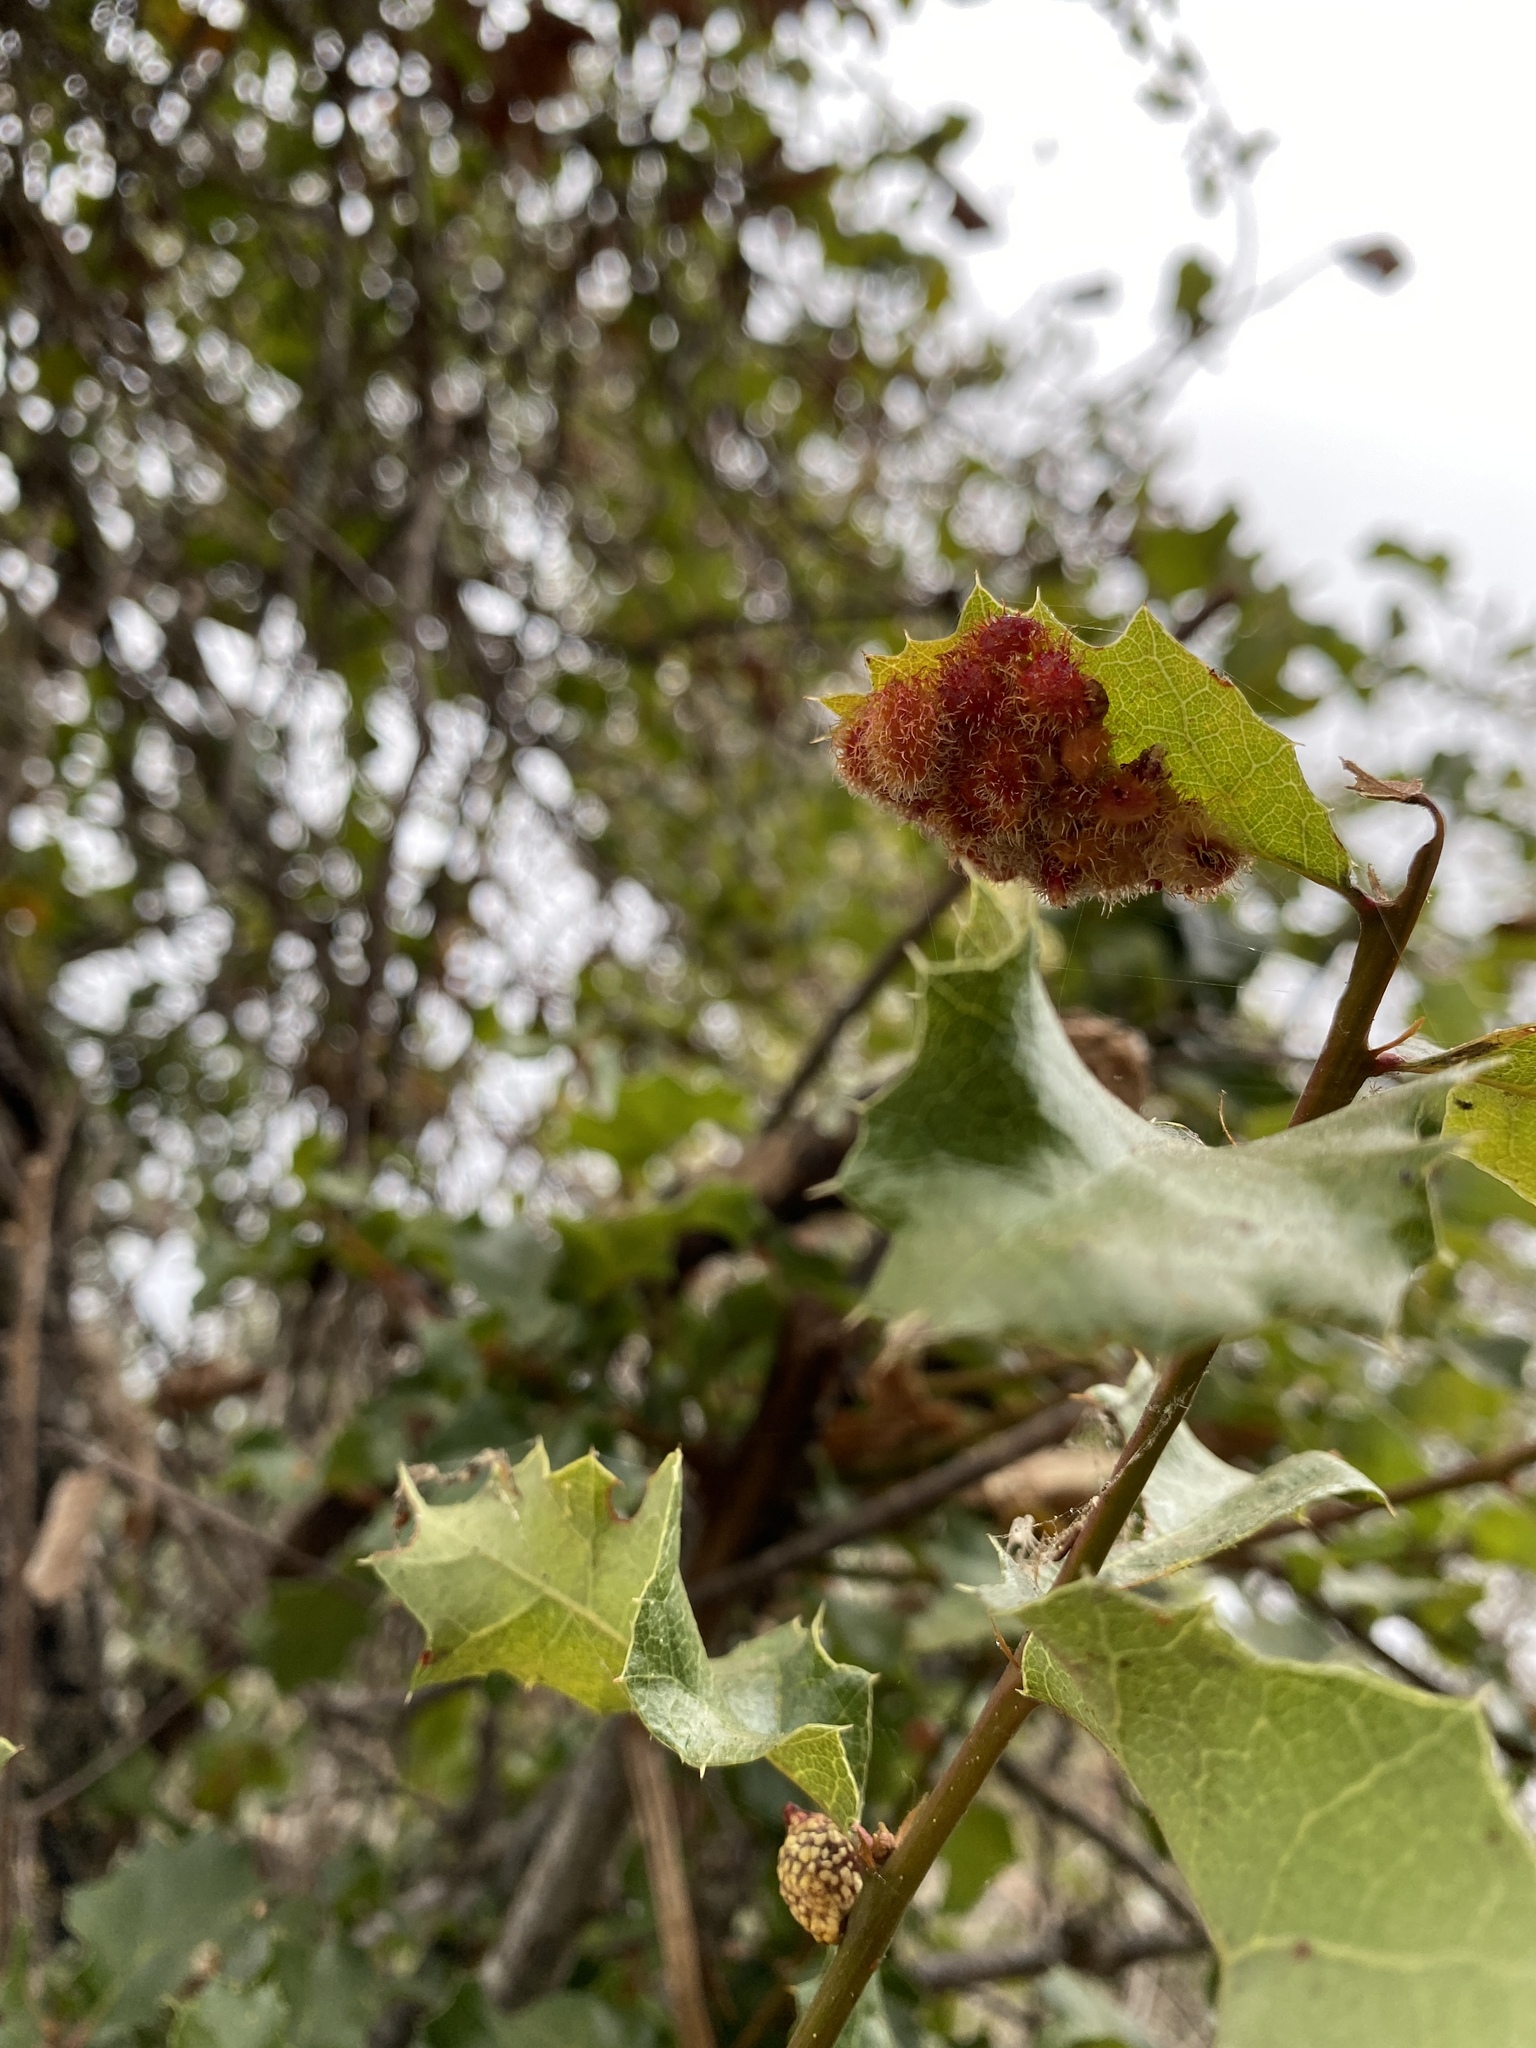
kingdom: Animalia
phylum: Arthropoda
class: Insecta
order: Hymenoptera
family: Cynipidae
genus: Andricus
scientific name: Andricus
